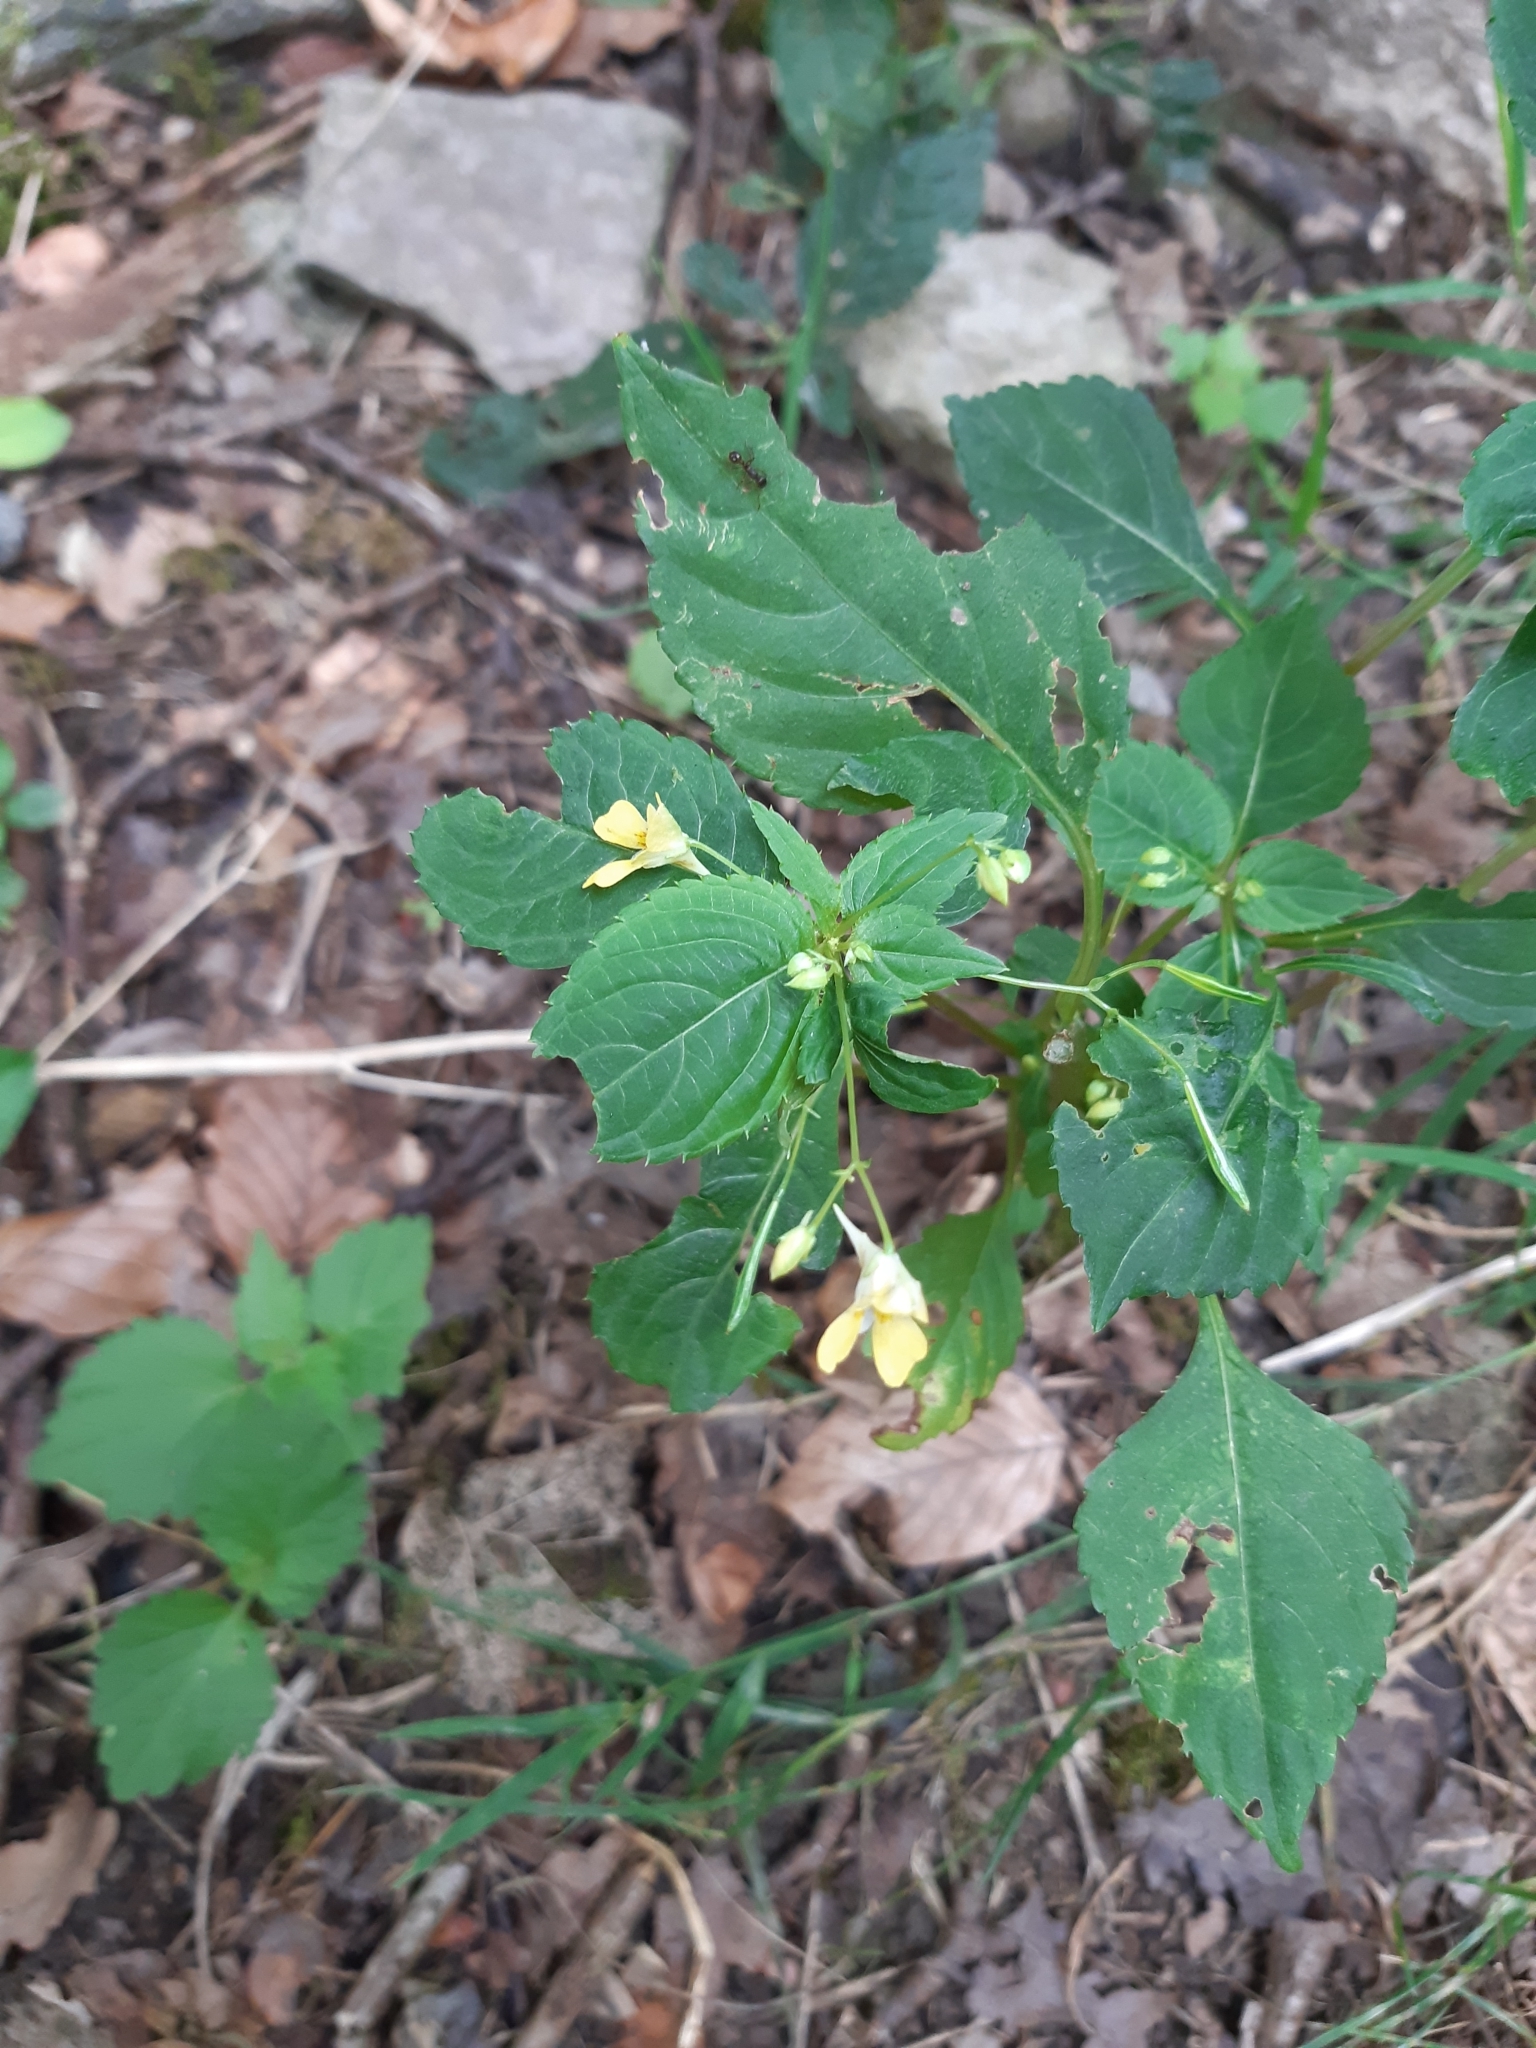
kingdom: Plantae
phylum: Tracheophyta
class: Magnoliopsida
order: Ericales
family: Balsaminaceae
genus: Impatiens
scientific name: Impatiens parviflora
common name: Small balsam
